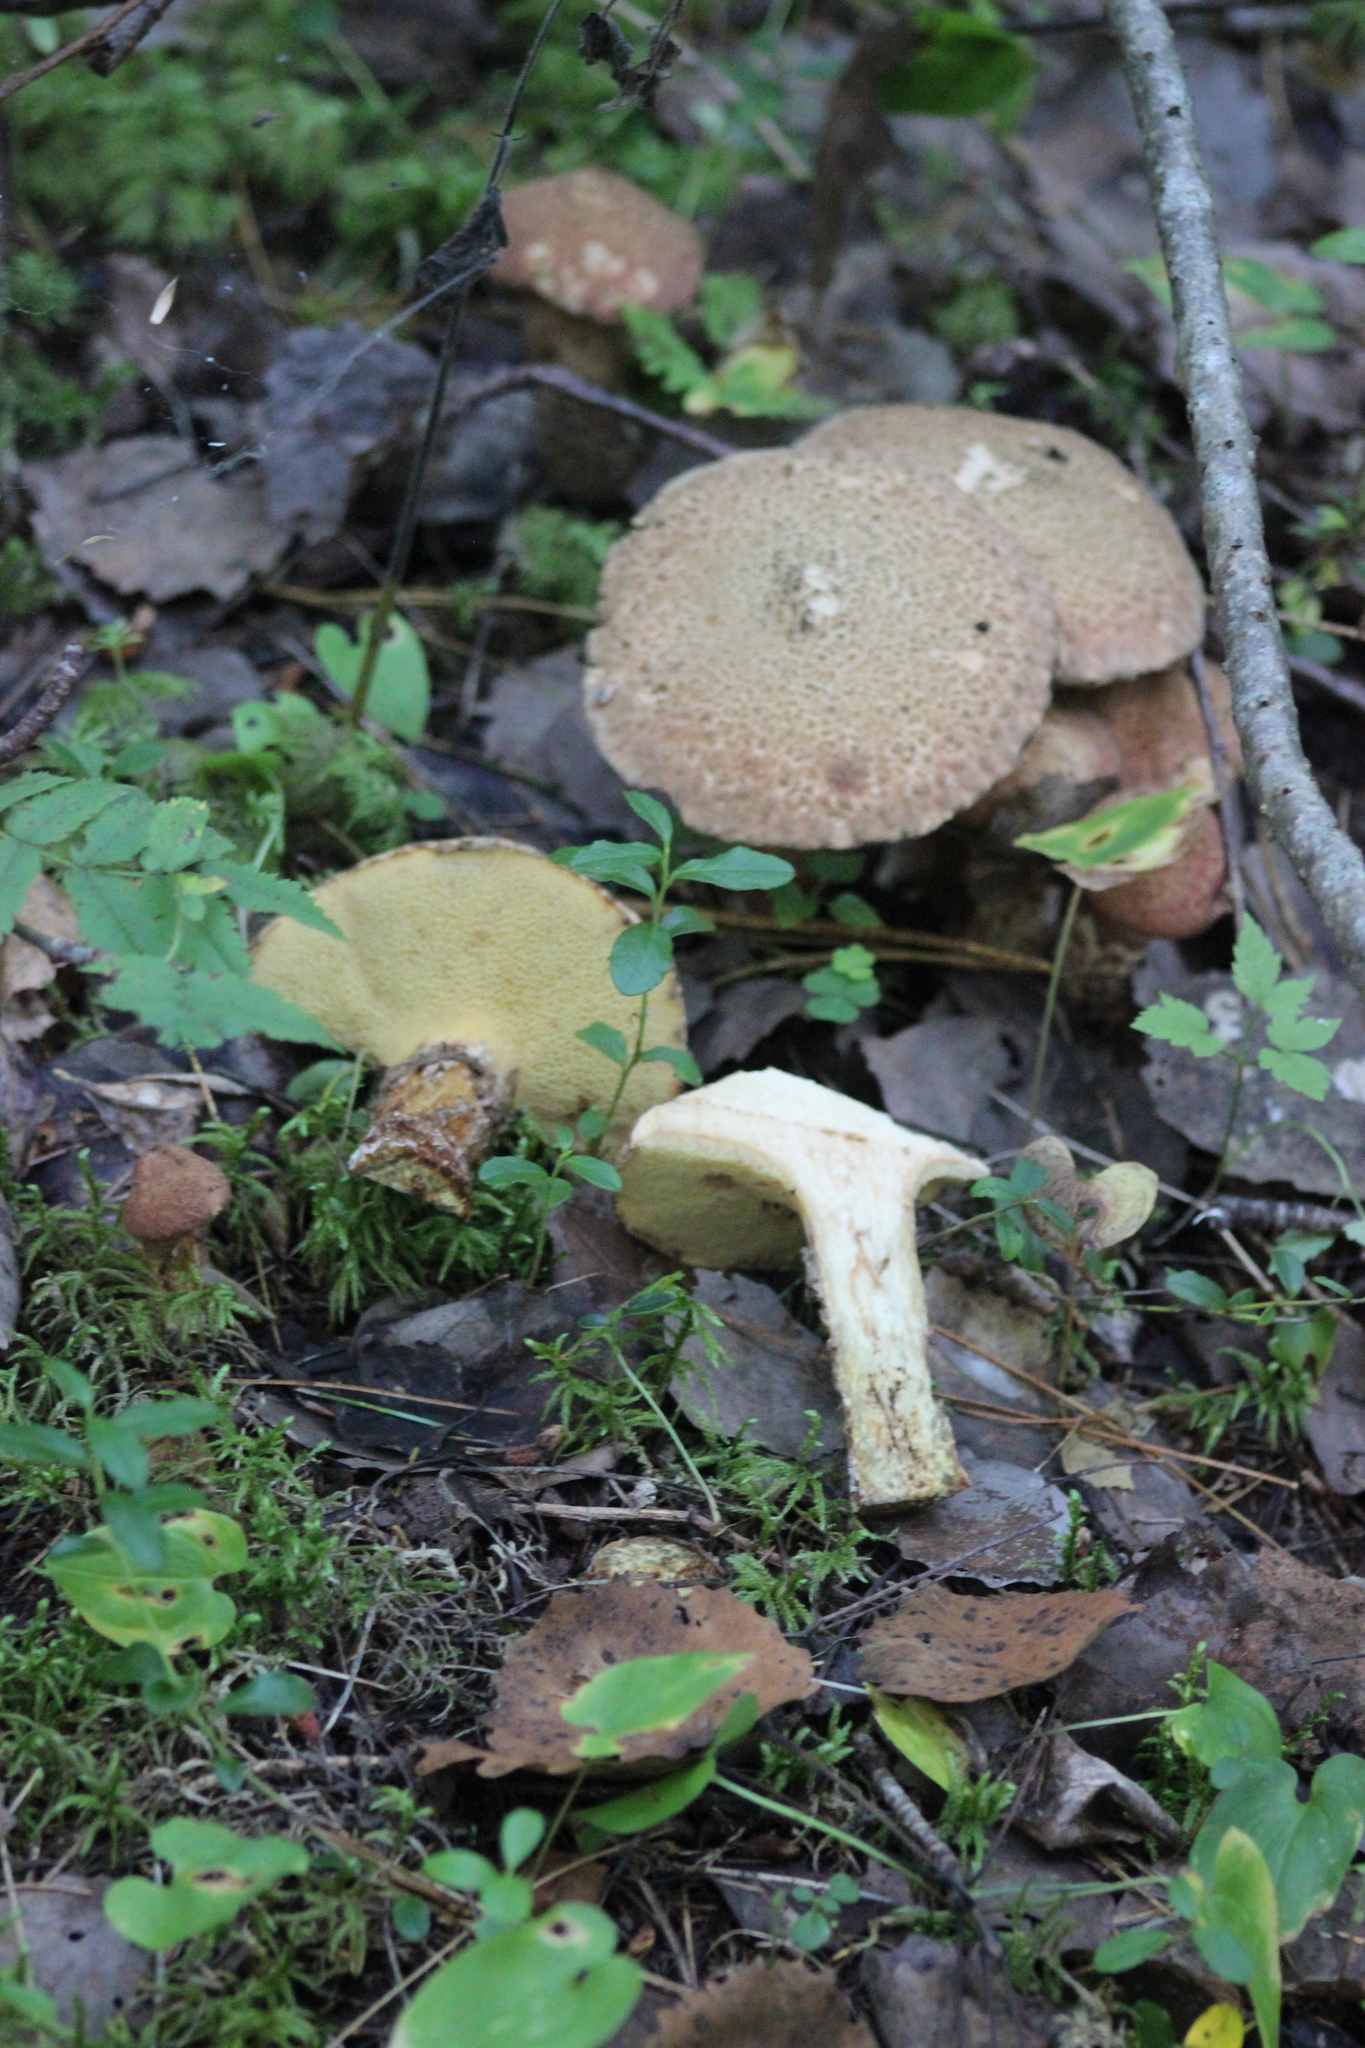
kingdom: Fungi
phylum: Basidiomycota
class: Agaricomycetes
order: Boletales
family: Suillaceae
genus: Suillus
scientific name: Suillus spraguei
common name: Painted suillus
